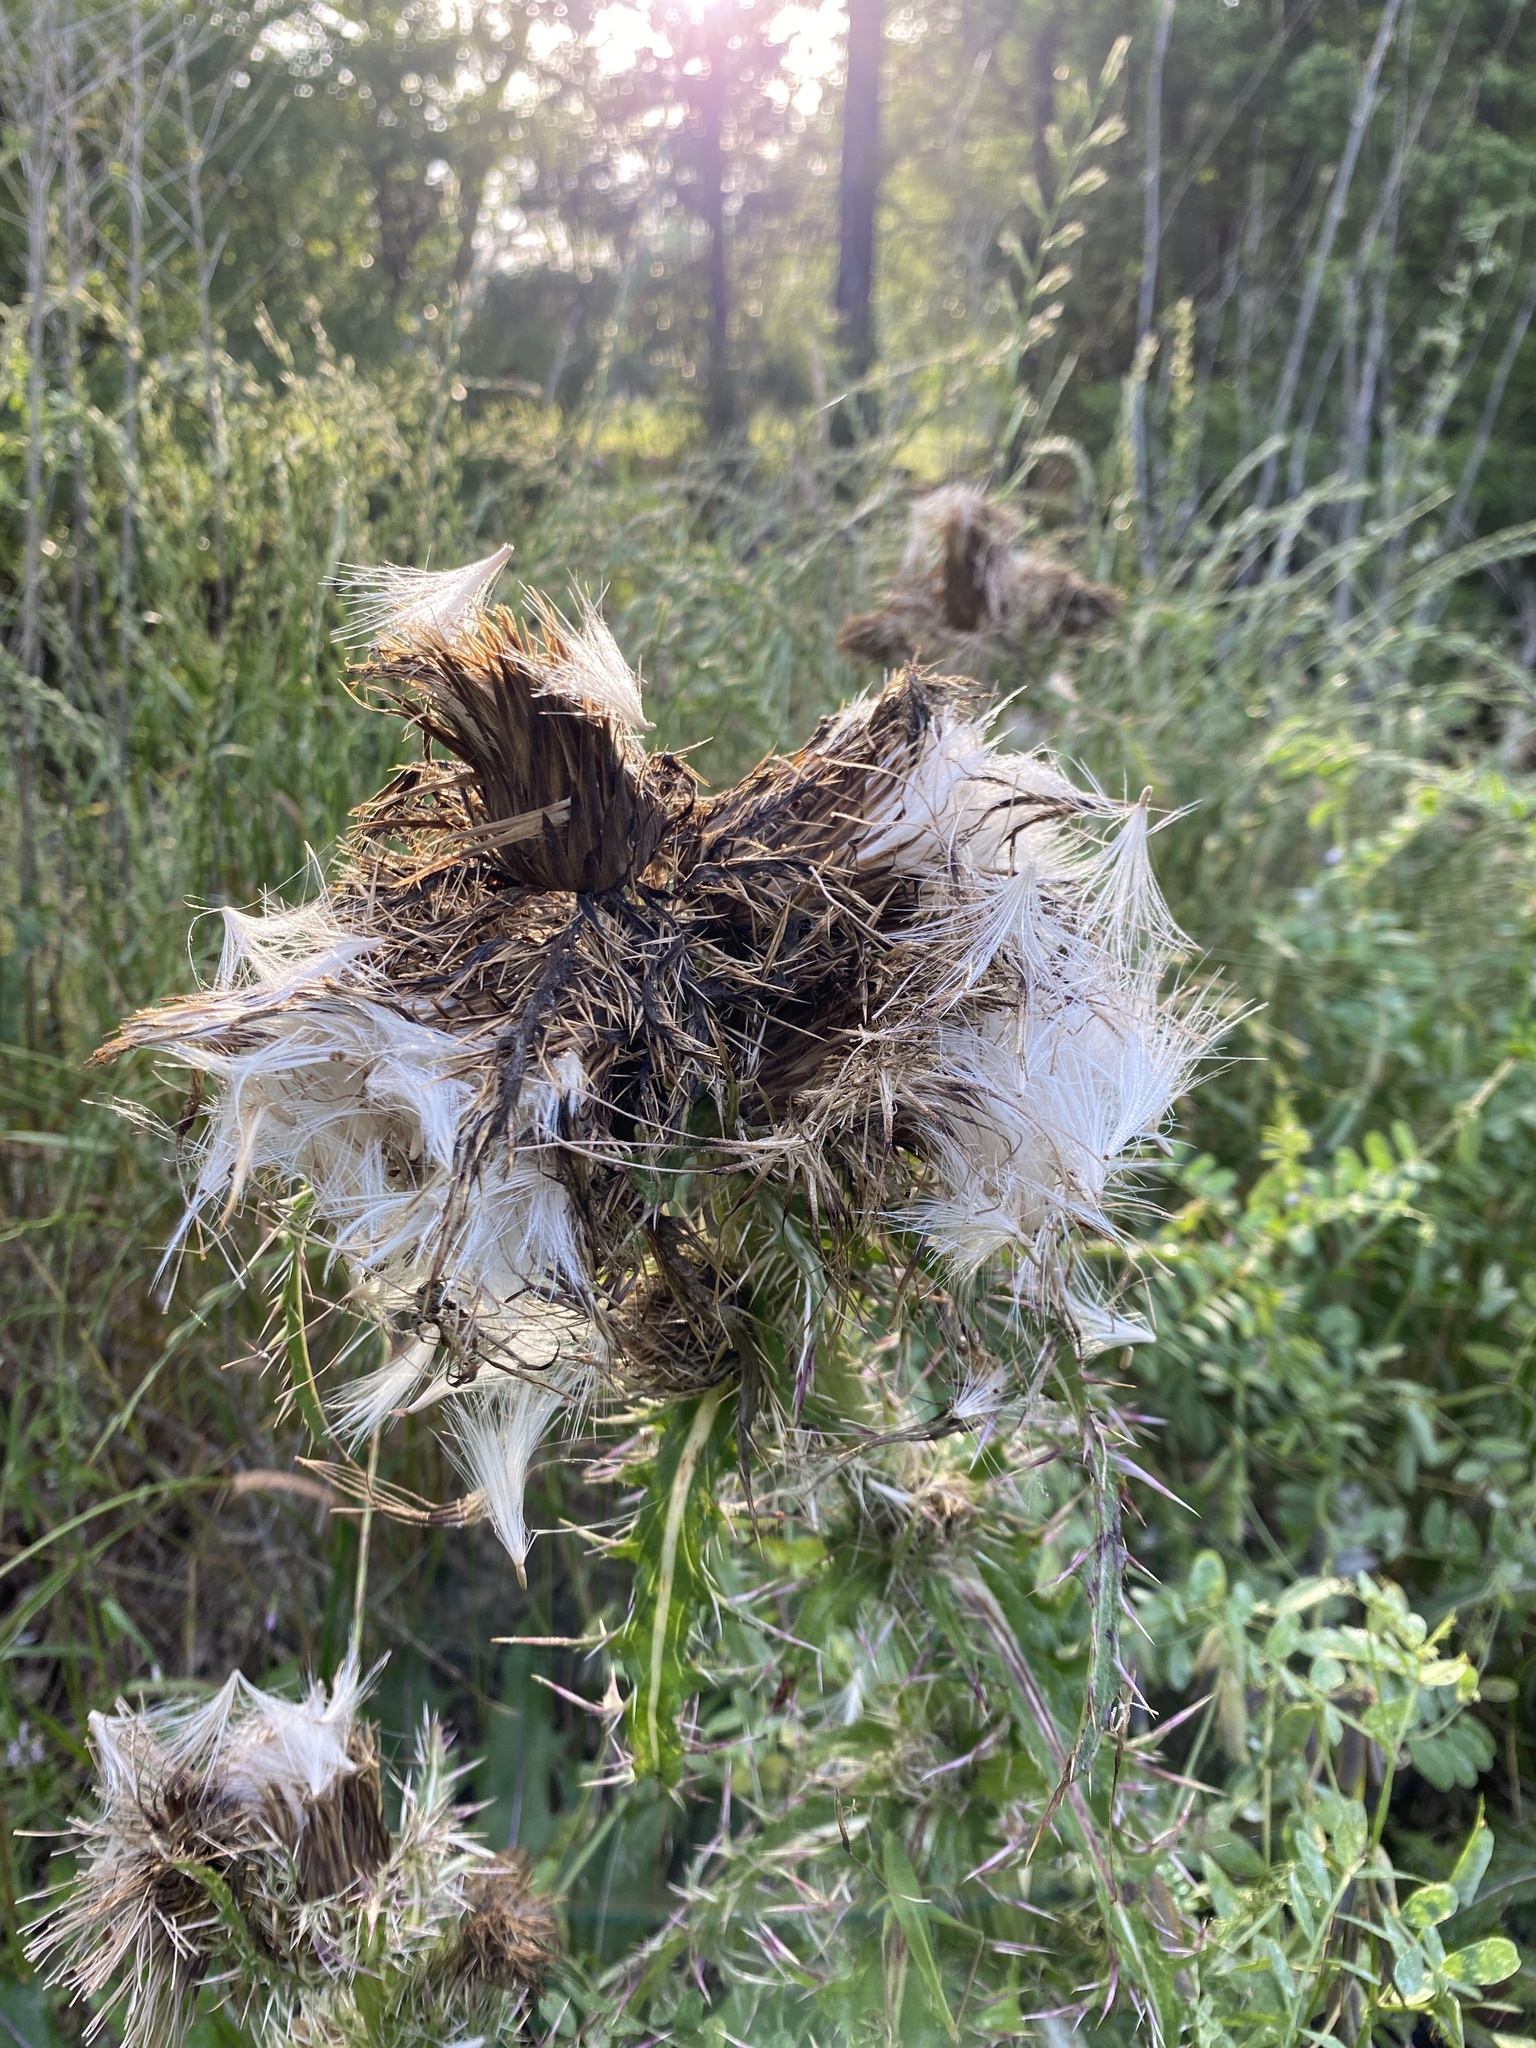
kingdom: Plantae
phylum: Tracheophyta
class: Magnoliopsida
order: Asterales
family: Asteraceae
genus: Cirsium
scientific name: Cirsium horridulum
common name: Bristly thistle
